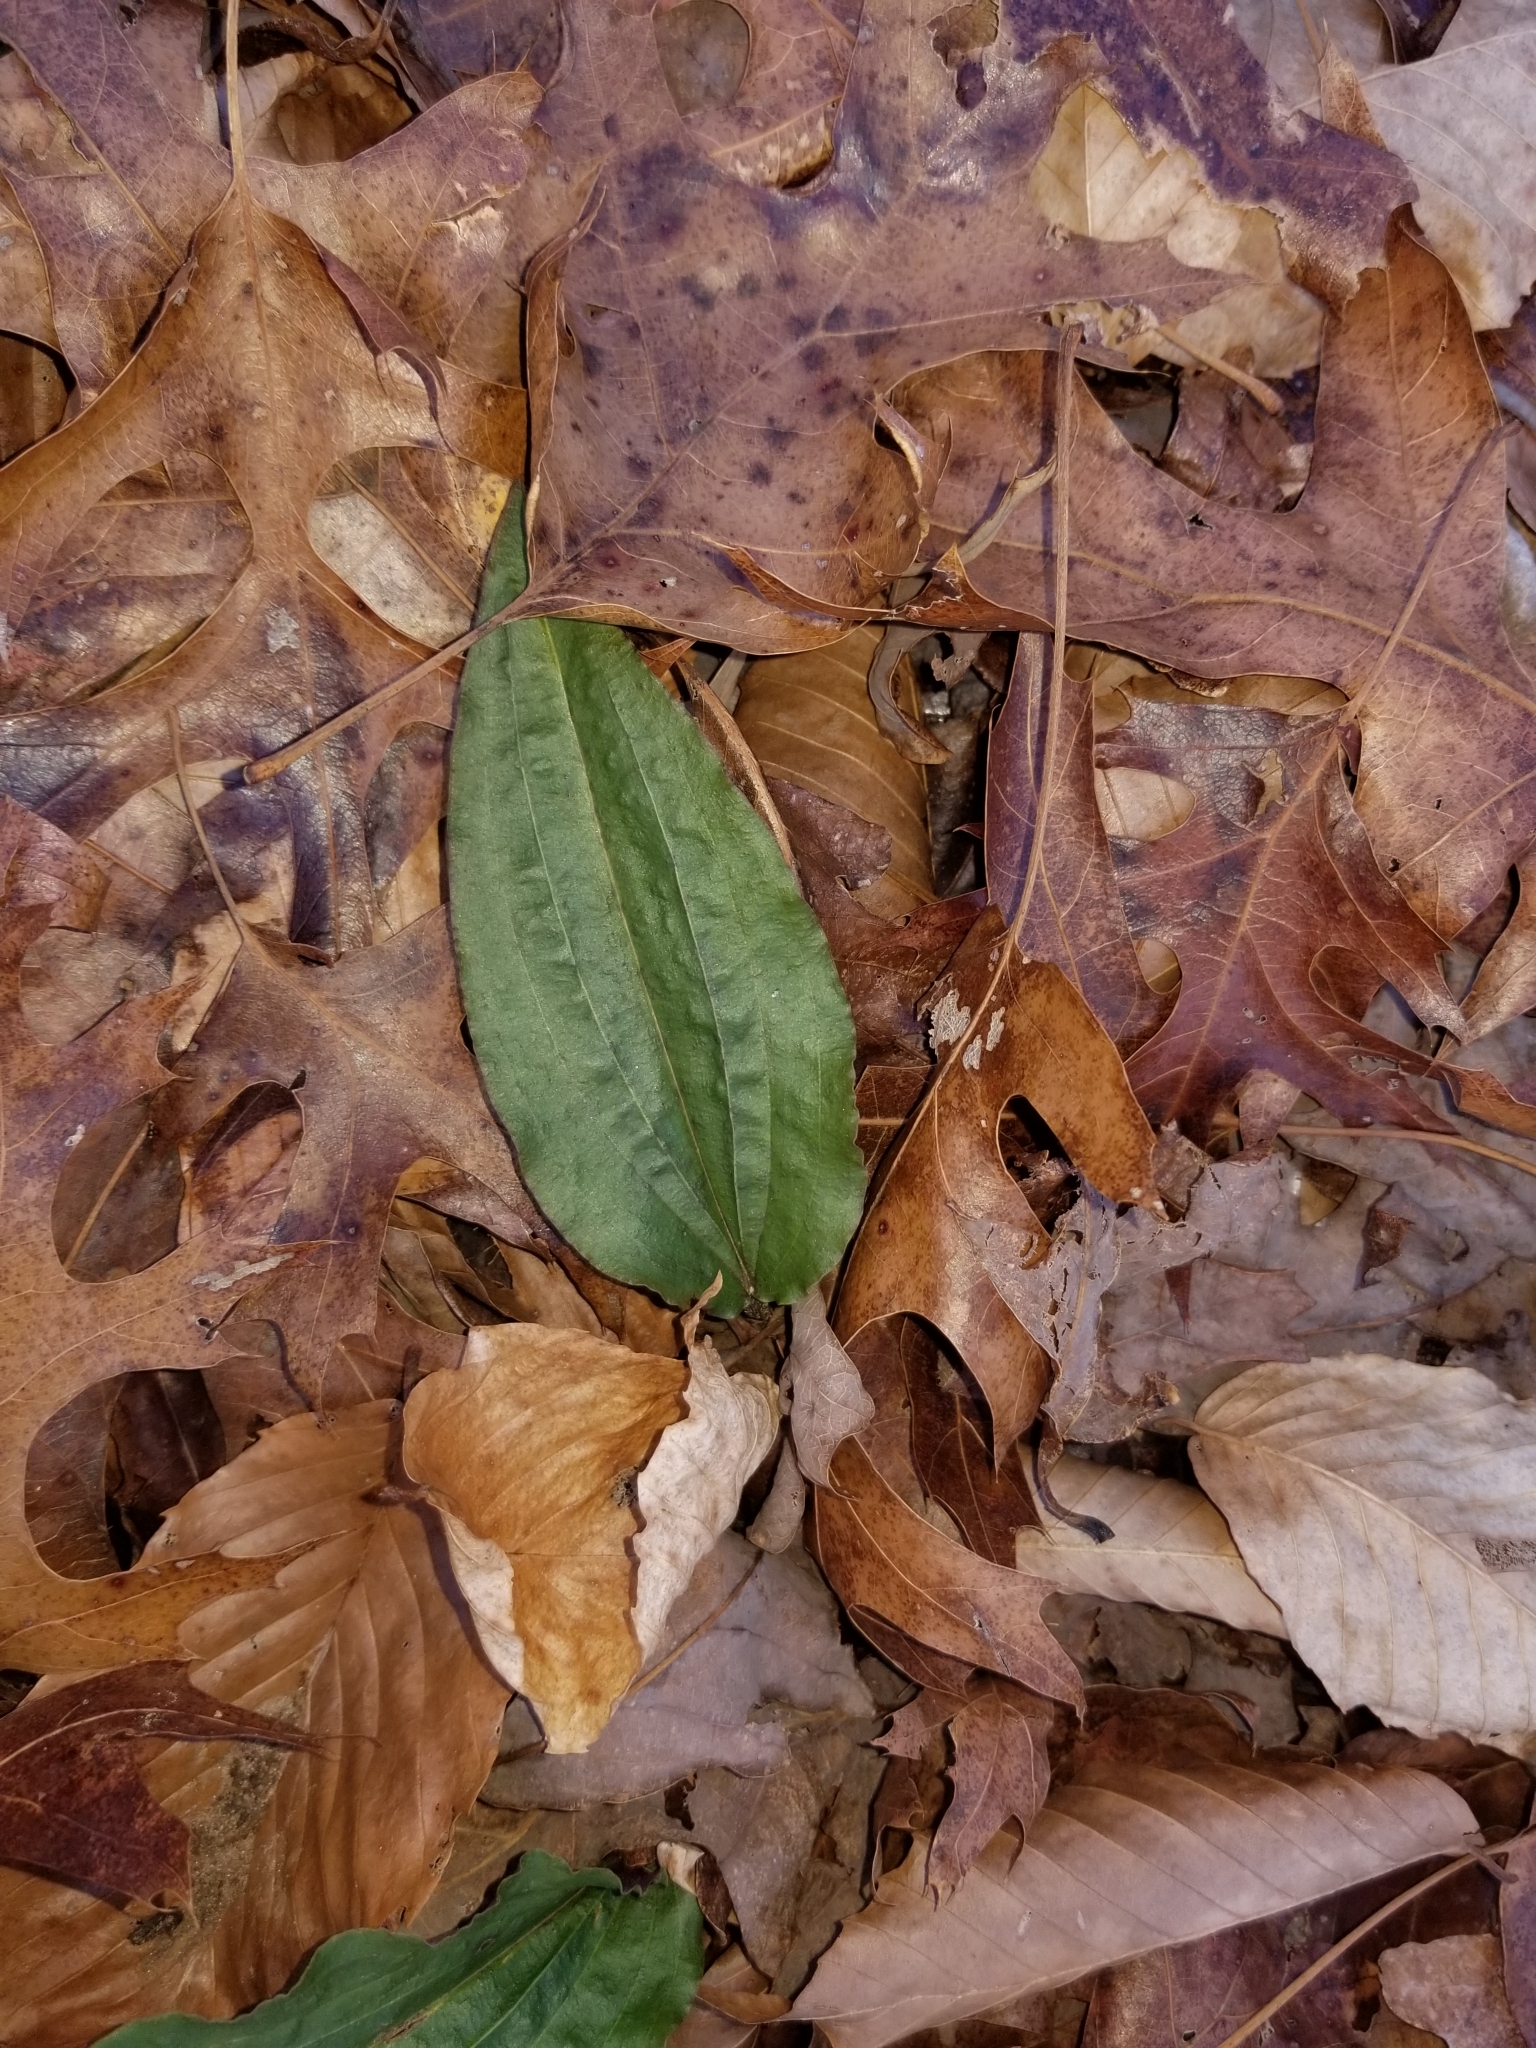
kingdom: Plantae
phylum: Tracheophyta
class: Liliopsida
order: Asparagales
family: Orchidaceae
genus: Tipularia
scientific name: Tipularia discolor
